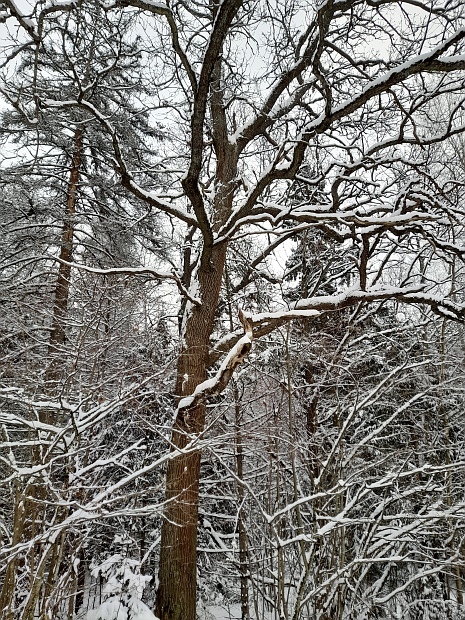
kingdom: Plantae
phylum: Tracheophyta
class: Magnoliopsida
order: Fagales
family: Fagaceae
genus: Quercus
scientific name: Quercus robur
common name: Pedunculate oak
